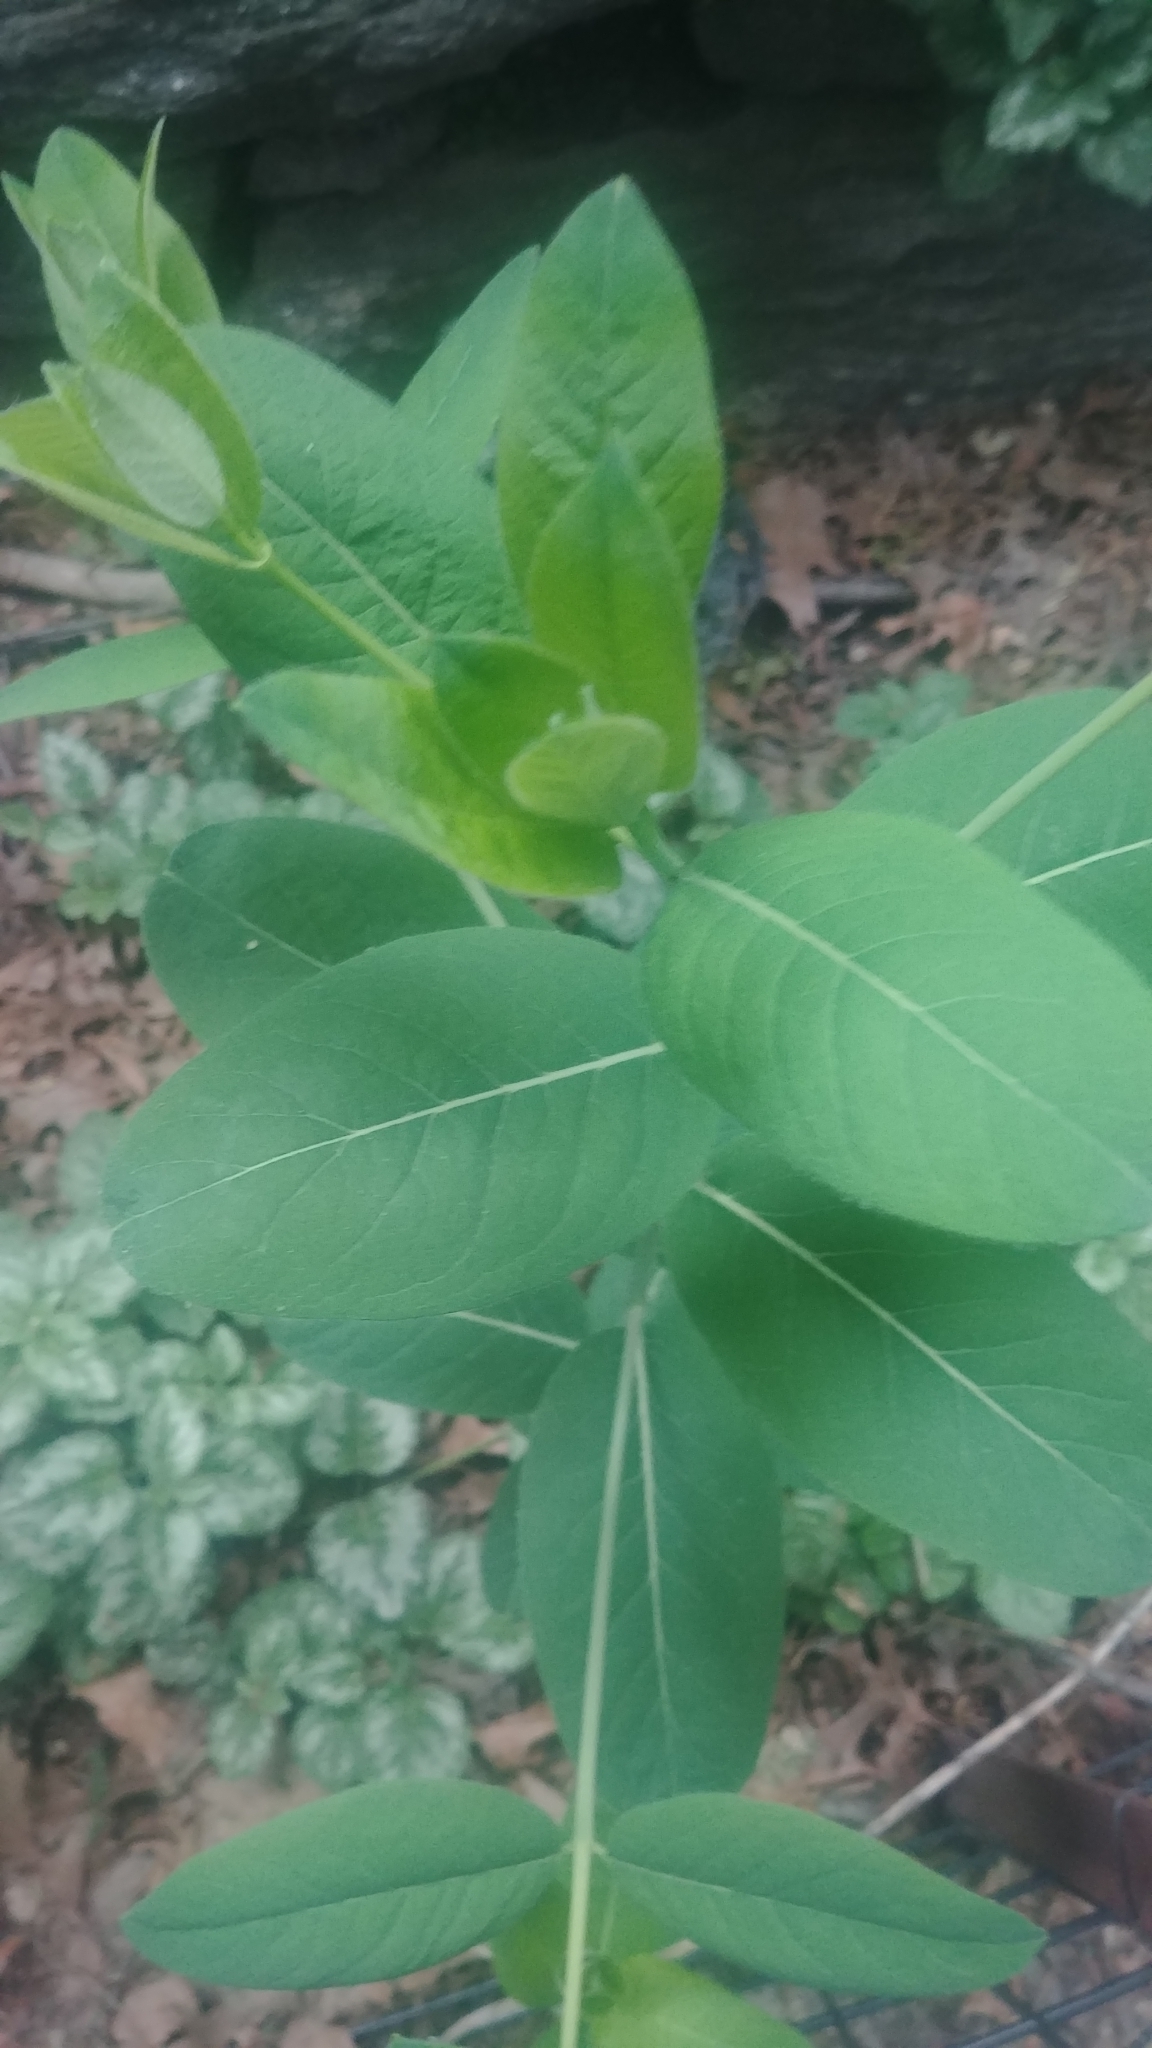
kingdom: Plantae
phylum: Tracheophyta
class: Magnoliopsida
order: Gentianales
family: Apocynaceae
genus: Apocynum
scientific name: Apocynum cannabinum
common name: Hemp dogbane
